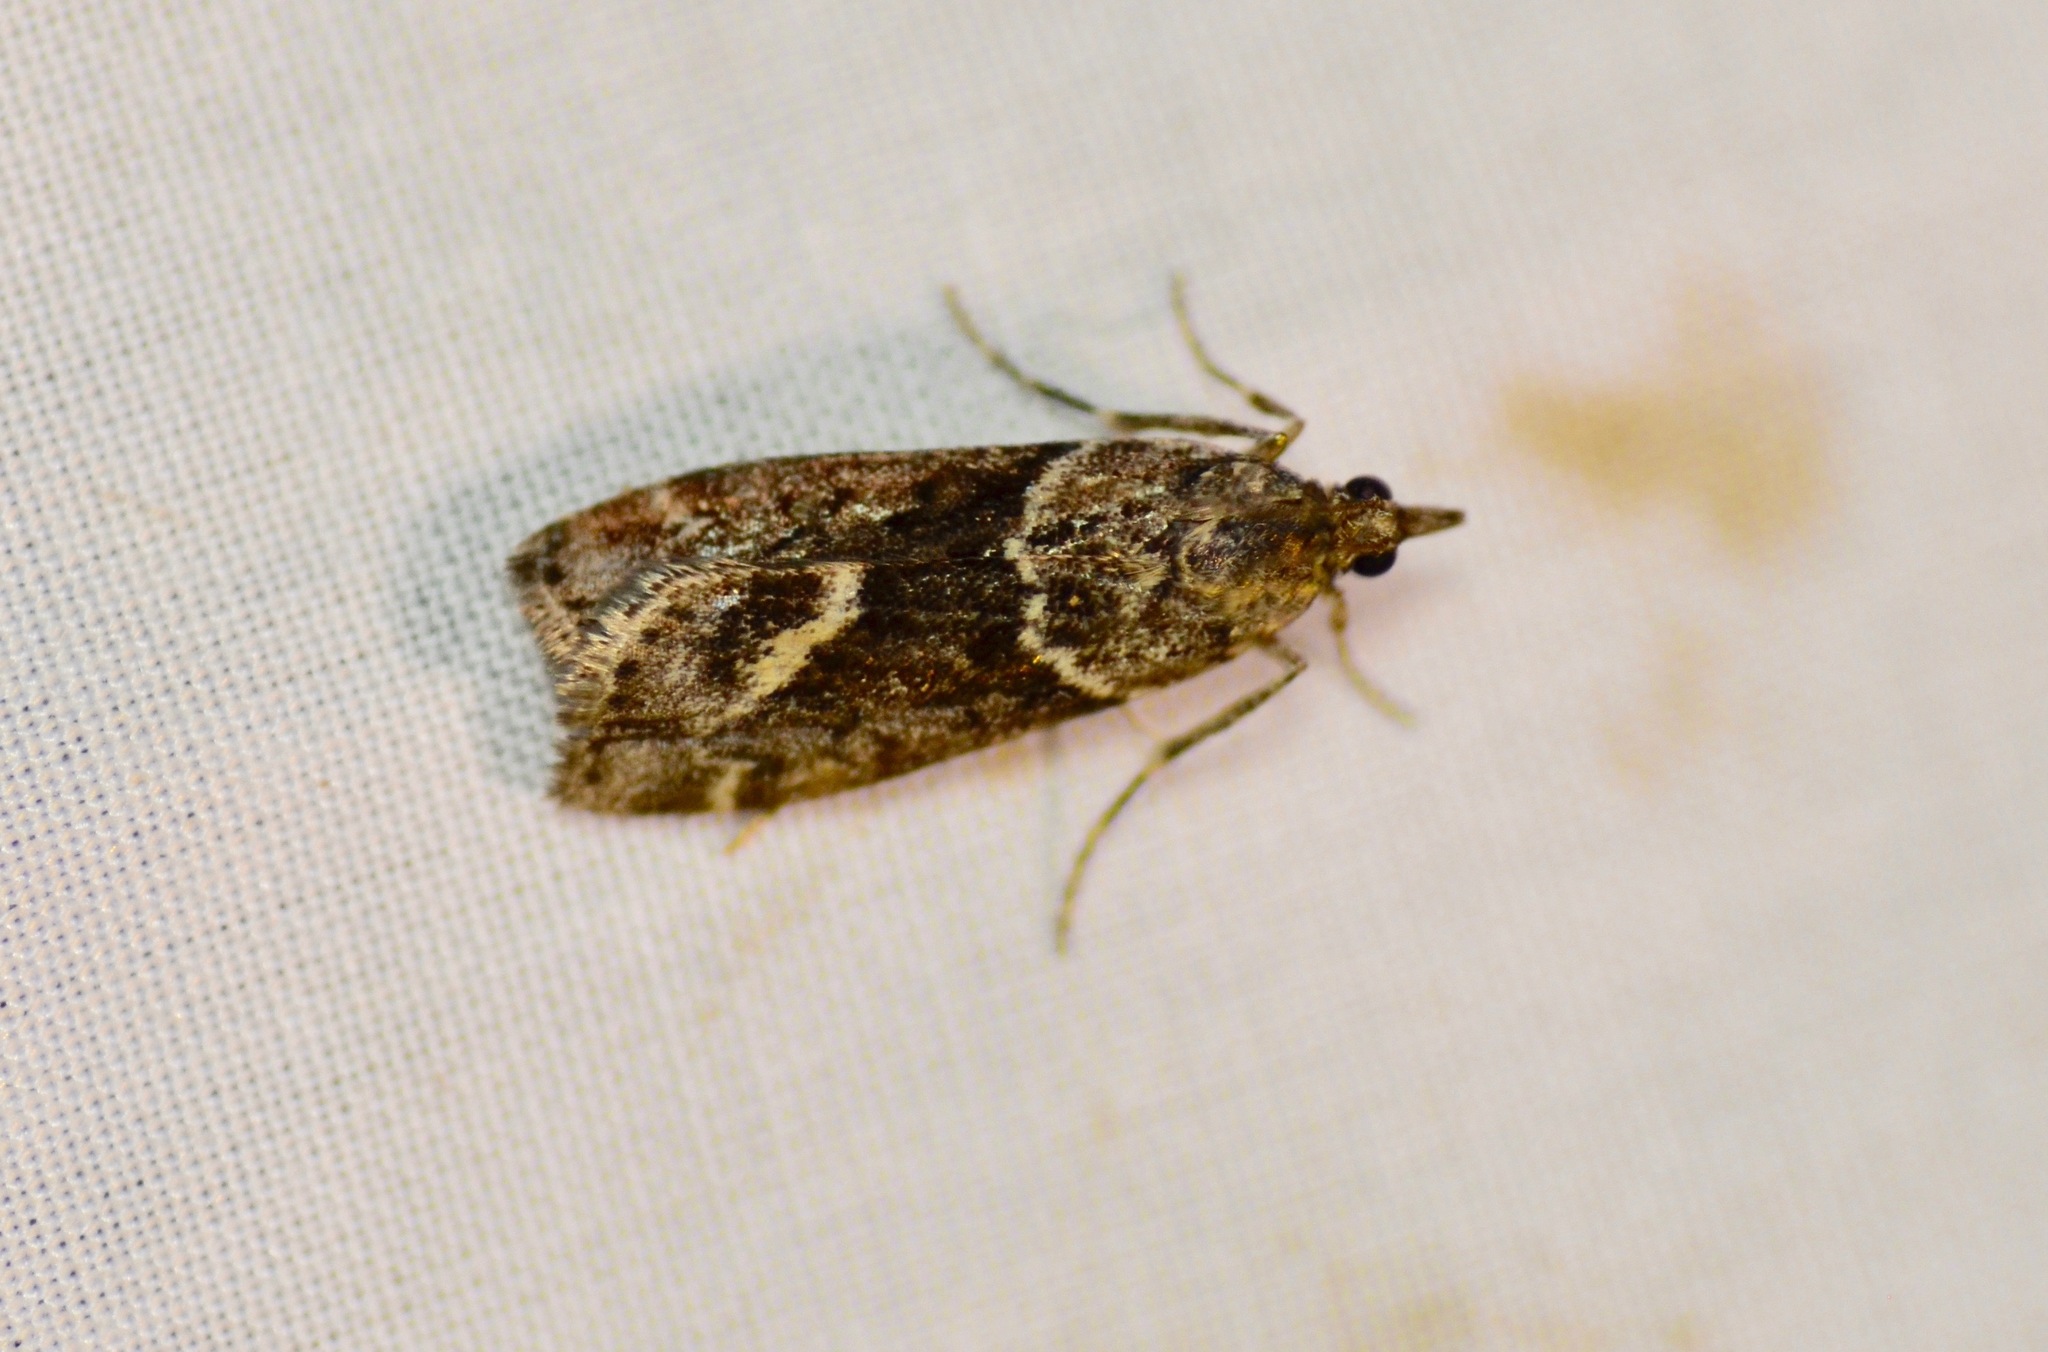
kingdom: Animalia
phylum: Arthropoda
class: Insecta
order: Lepidoptera
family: Crambidae
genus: Eudonia
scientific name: Eudonia submarginalis
